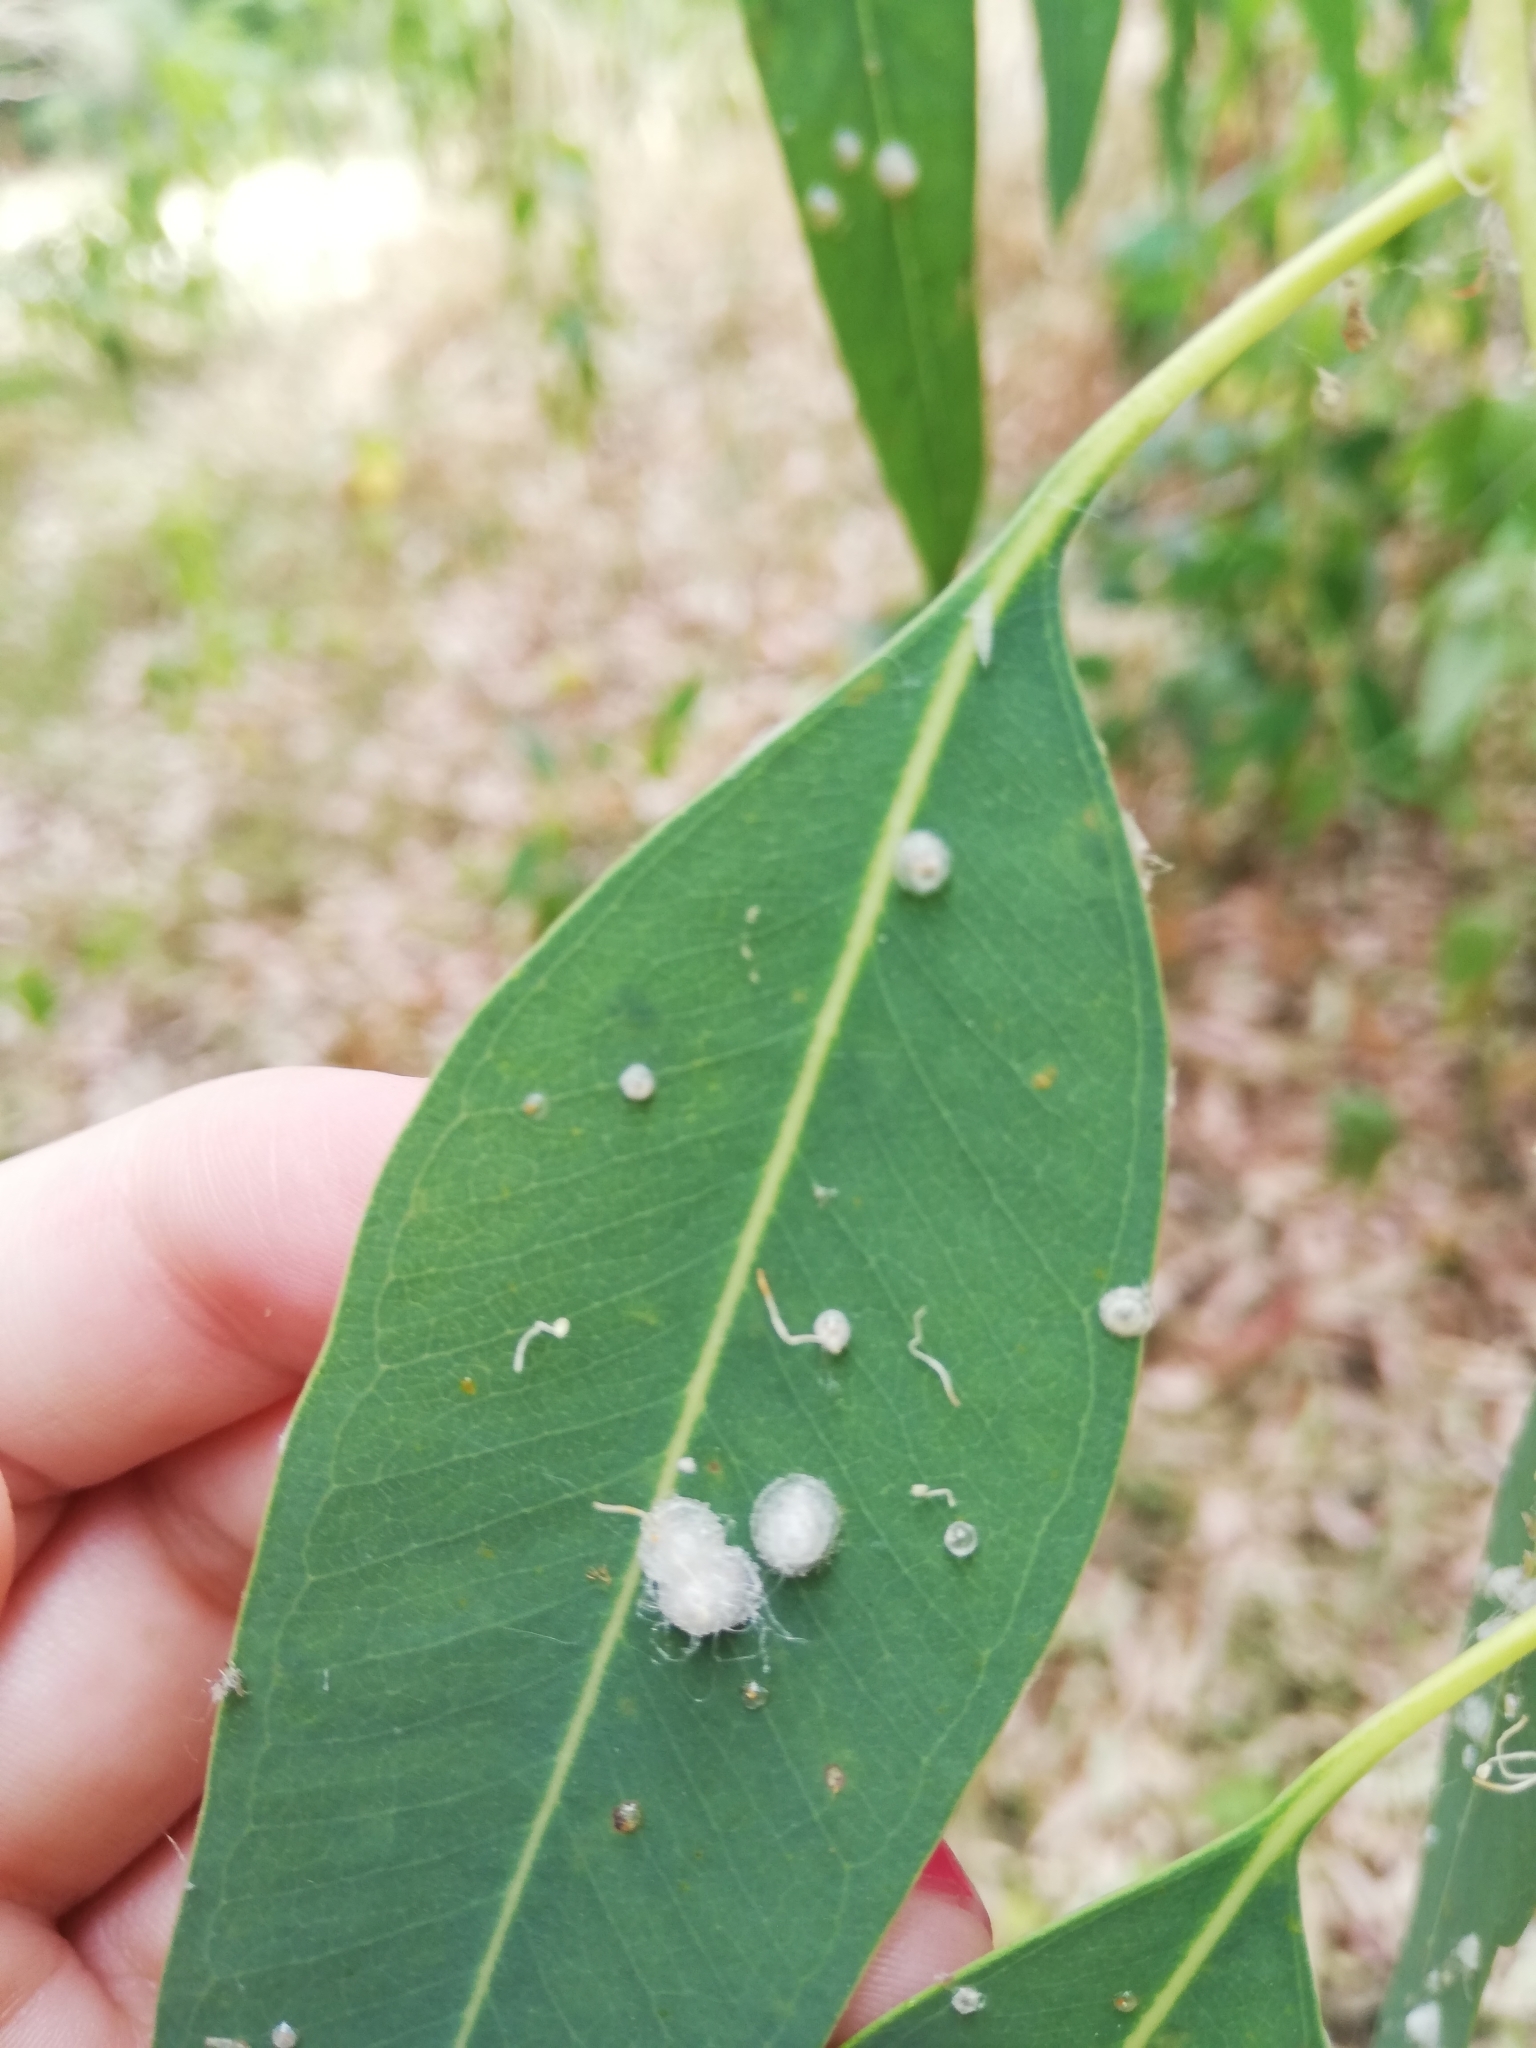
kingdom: Animalia
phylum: Arthropoda
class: Insecta
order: Hemiptera
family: Aphalaridae
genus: Glycaspis
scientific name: Glycaspis brimblecombei
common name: Red gum lerp psyllid
